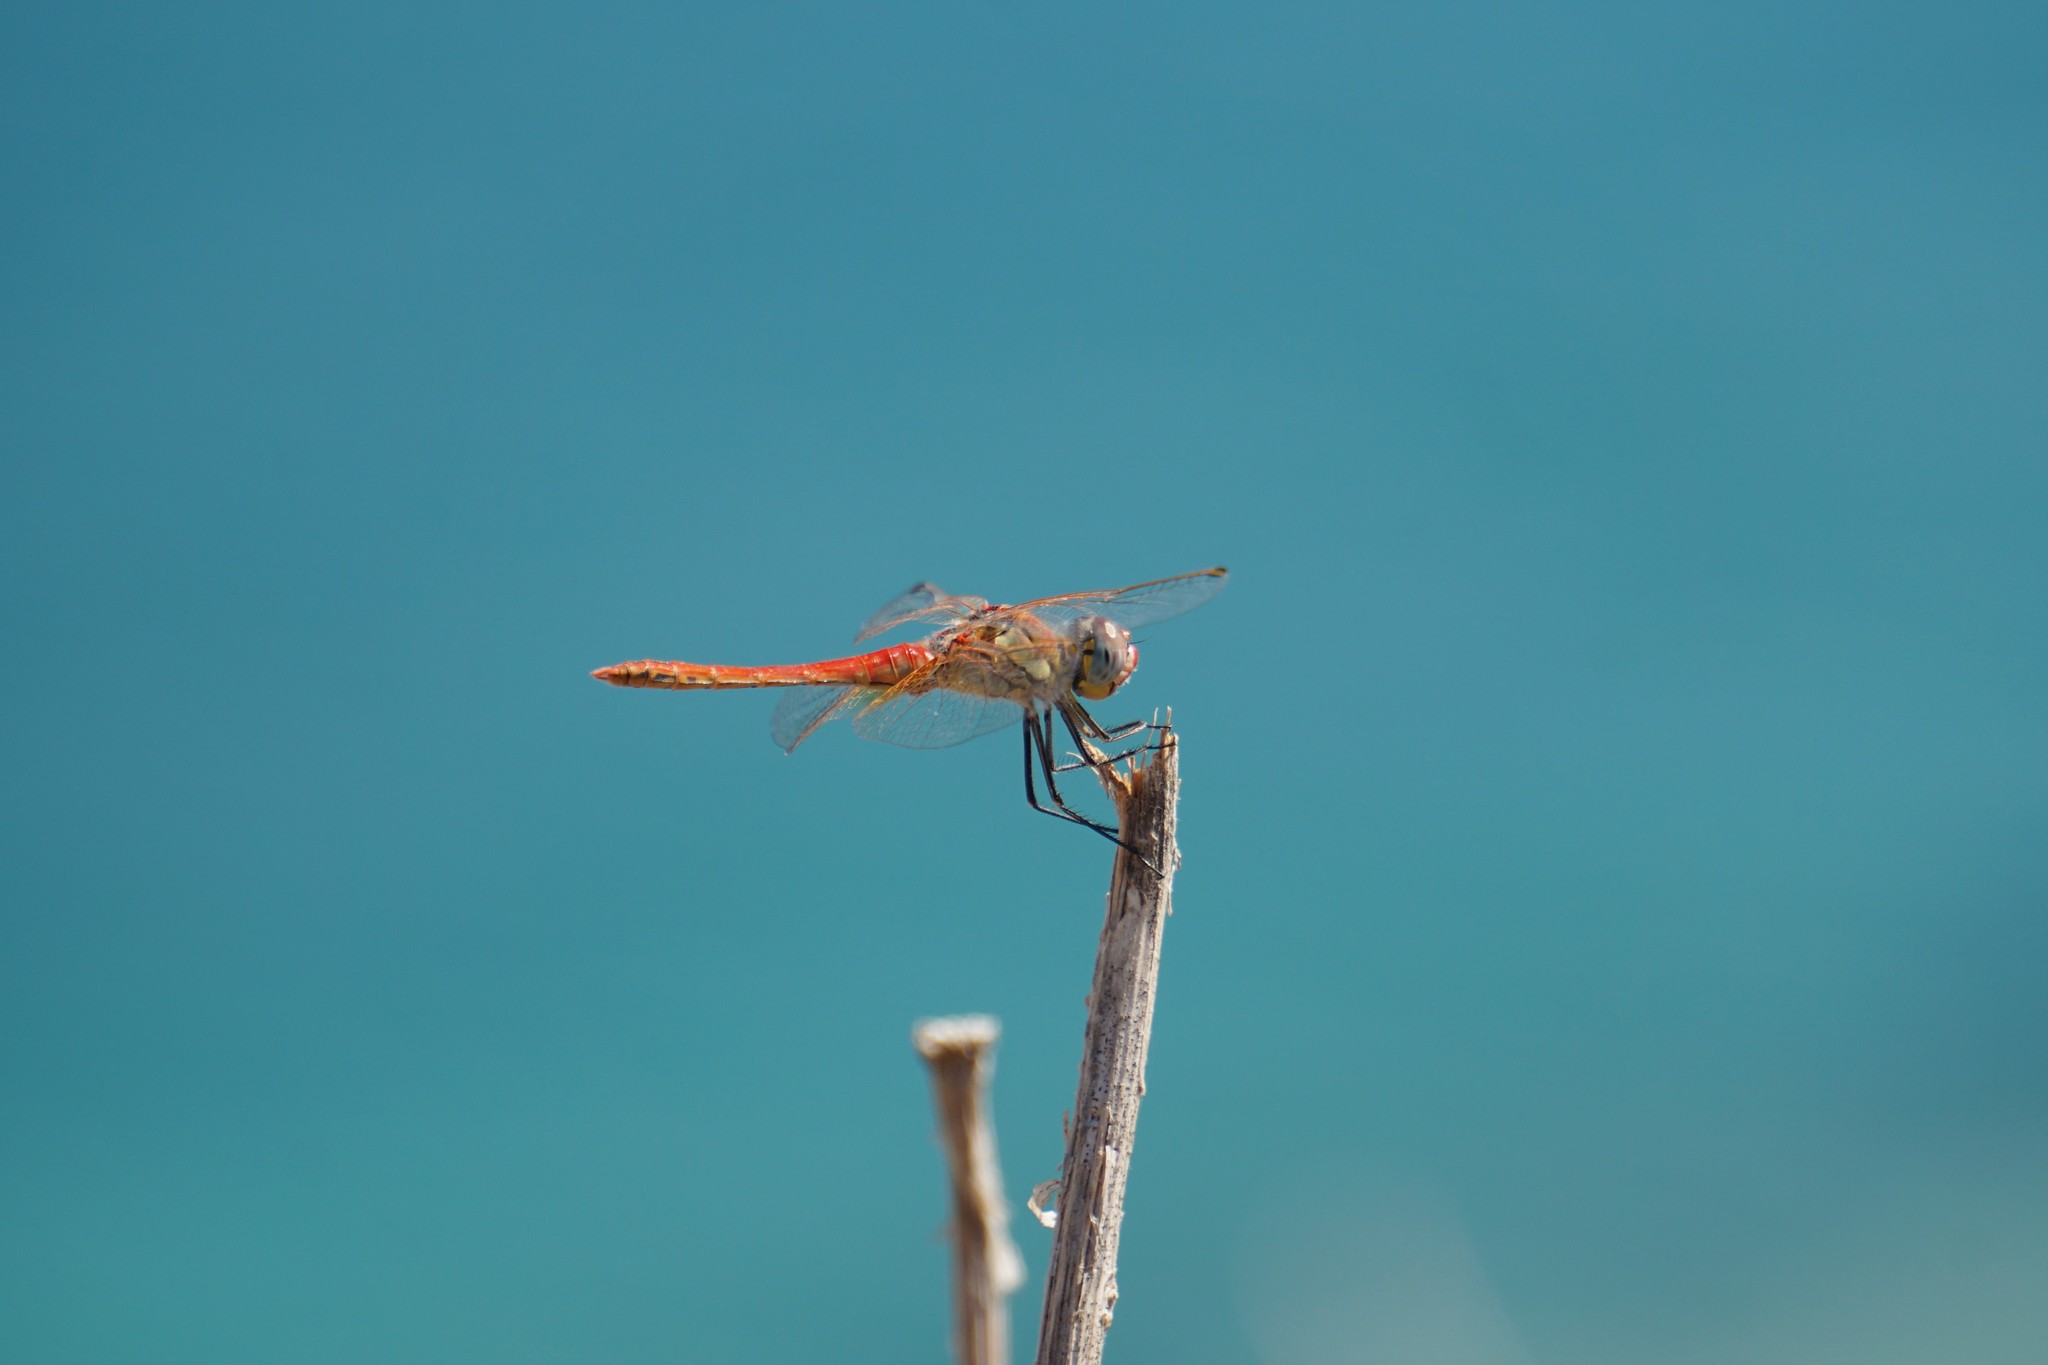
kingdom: Animalia
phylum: Arthropoda
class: Insecta
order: Odonata
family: Libellulidae
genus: Sympetrum
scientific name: Sympetrum fonscolombii
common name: Red-veined darter
